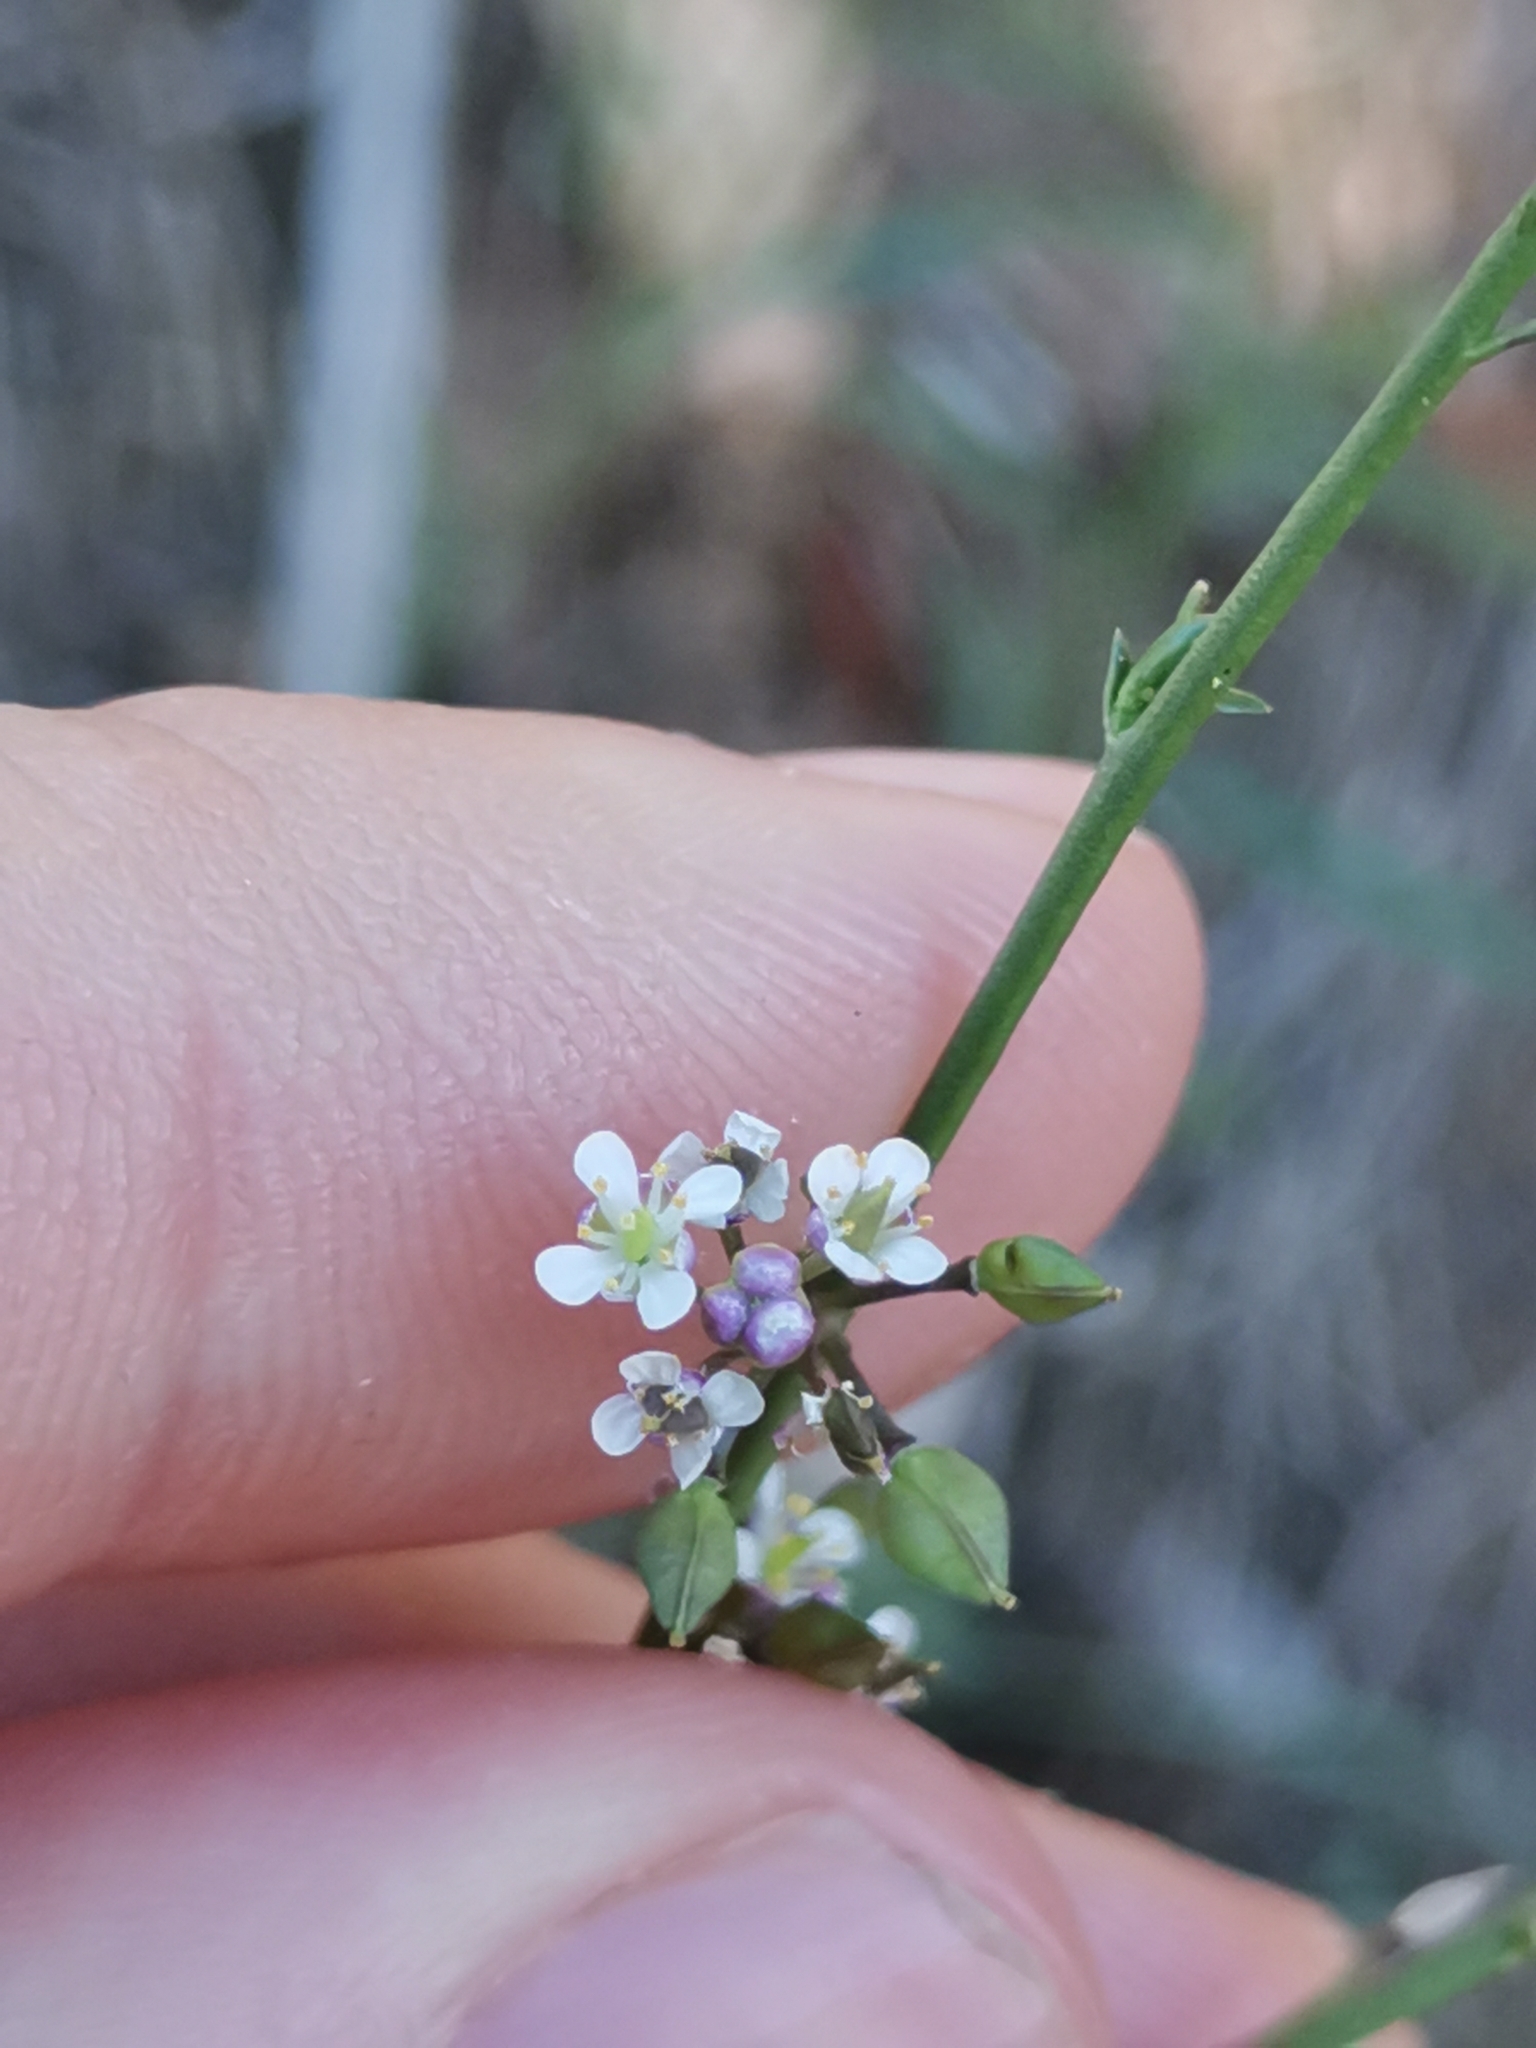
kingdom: Plantae
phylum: Tracheophyta
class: Magnoliopsida
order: Brassicales
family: Brassicaceae
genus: Lepidium
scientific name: Lepidium graminifolium
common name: Tall pepperwort
